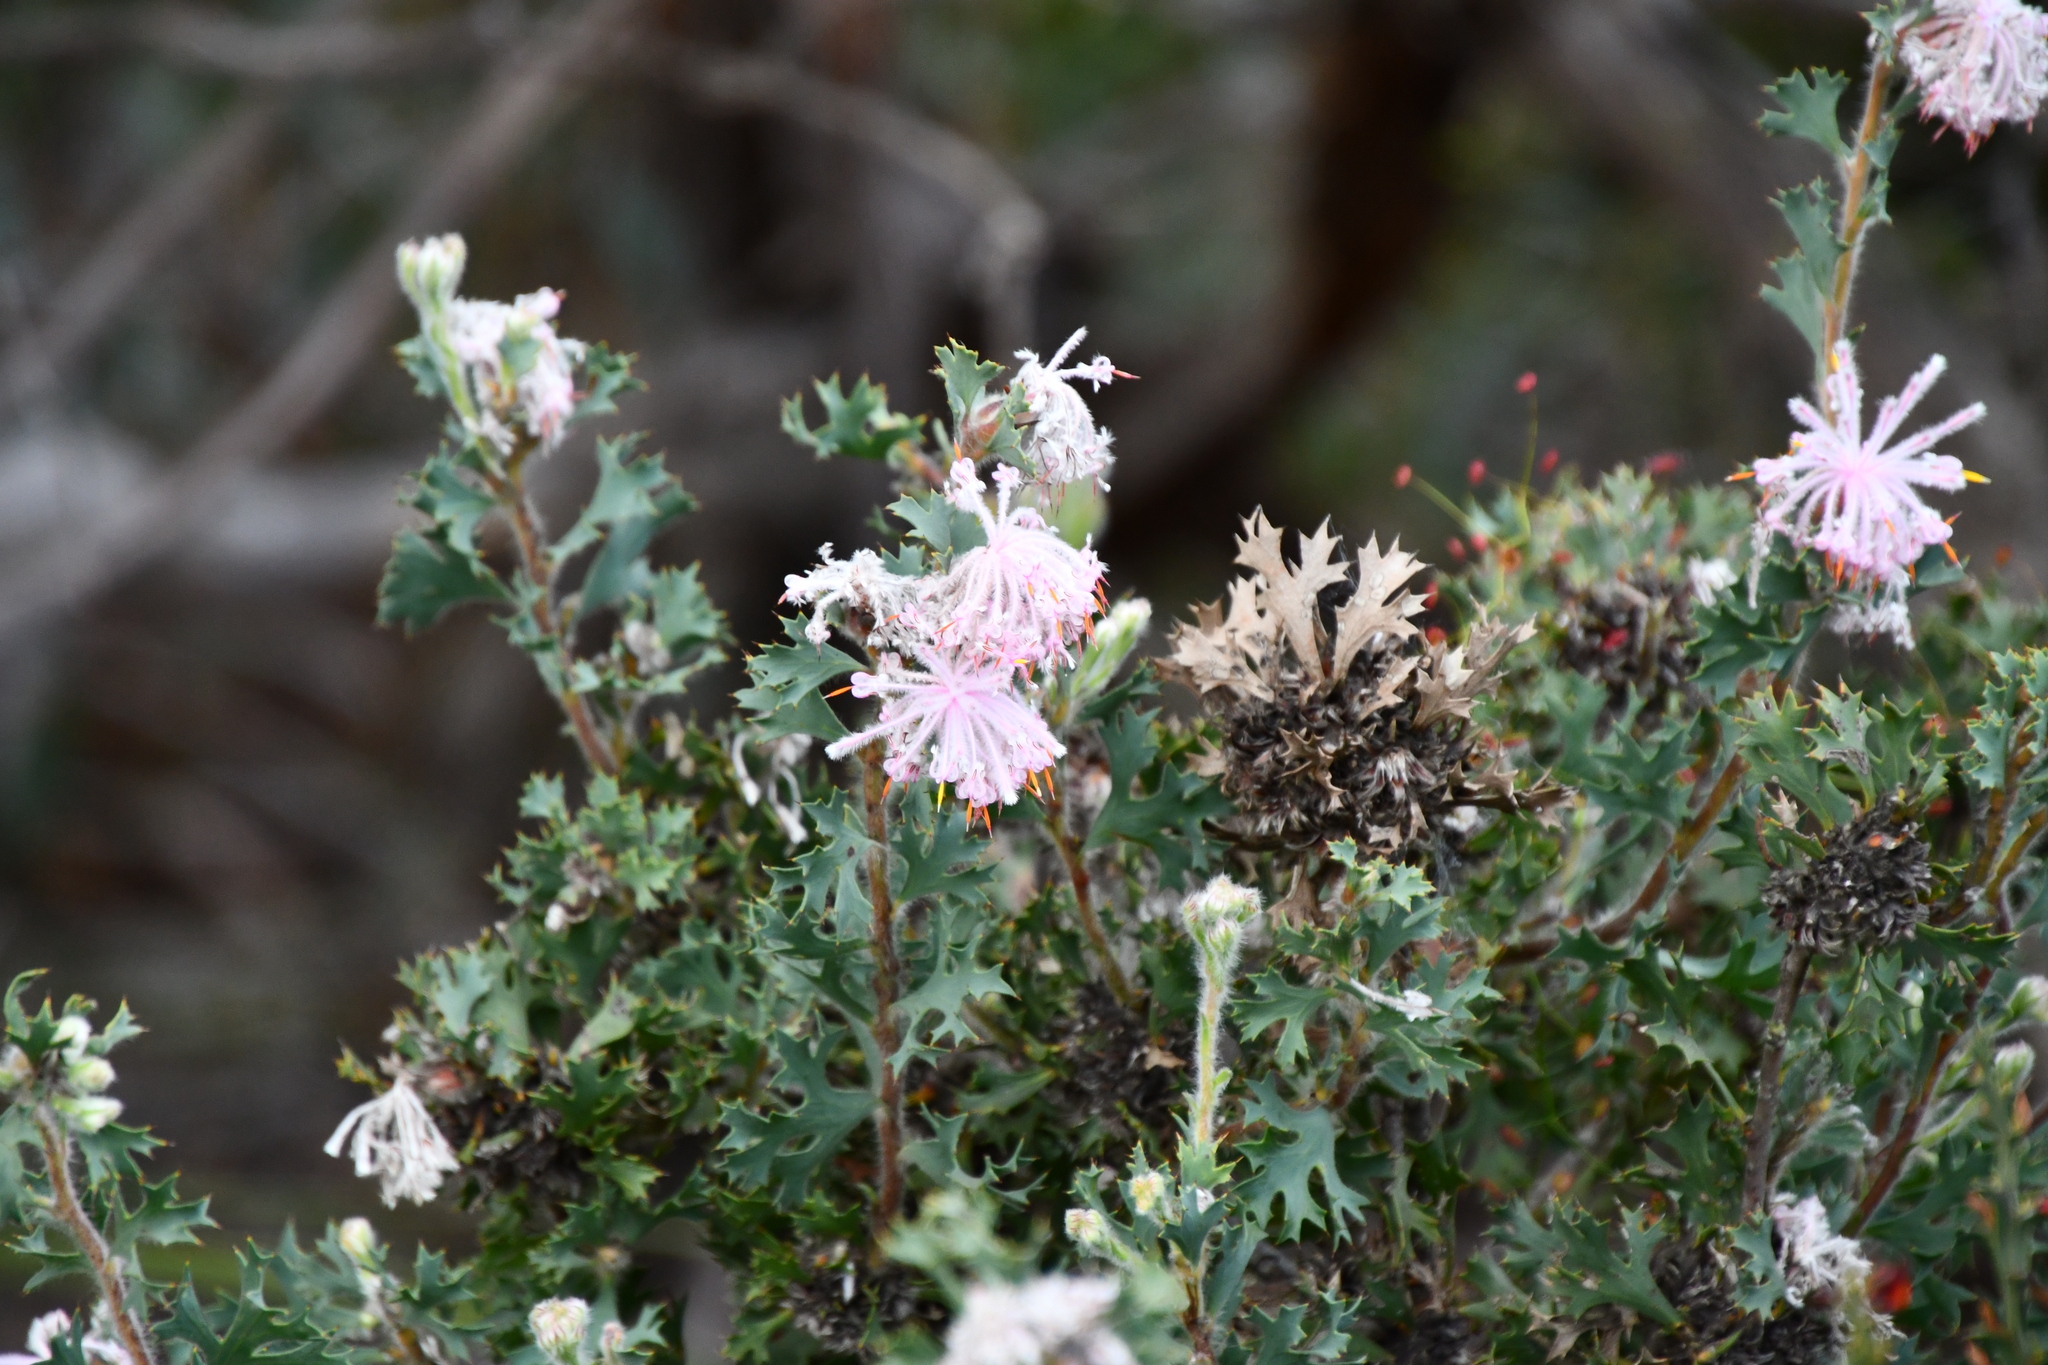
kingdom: Plantae
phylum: Tracheophyta
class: Magnoliopsida
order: Proteales
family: Proteaceae
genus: Isopogon
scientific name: Isopogon baxteri
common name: Stirling range coneflower
